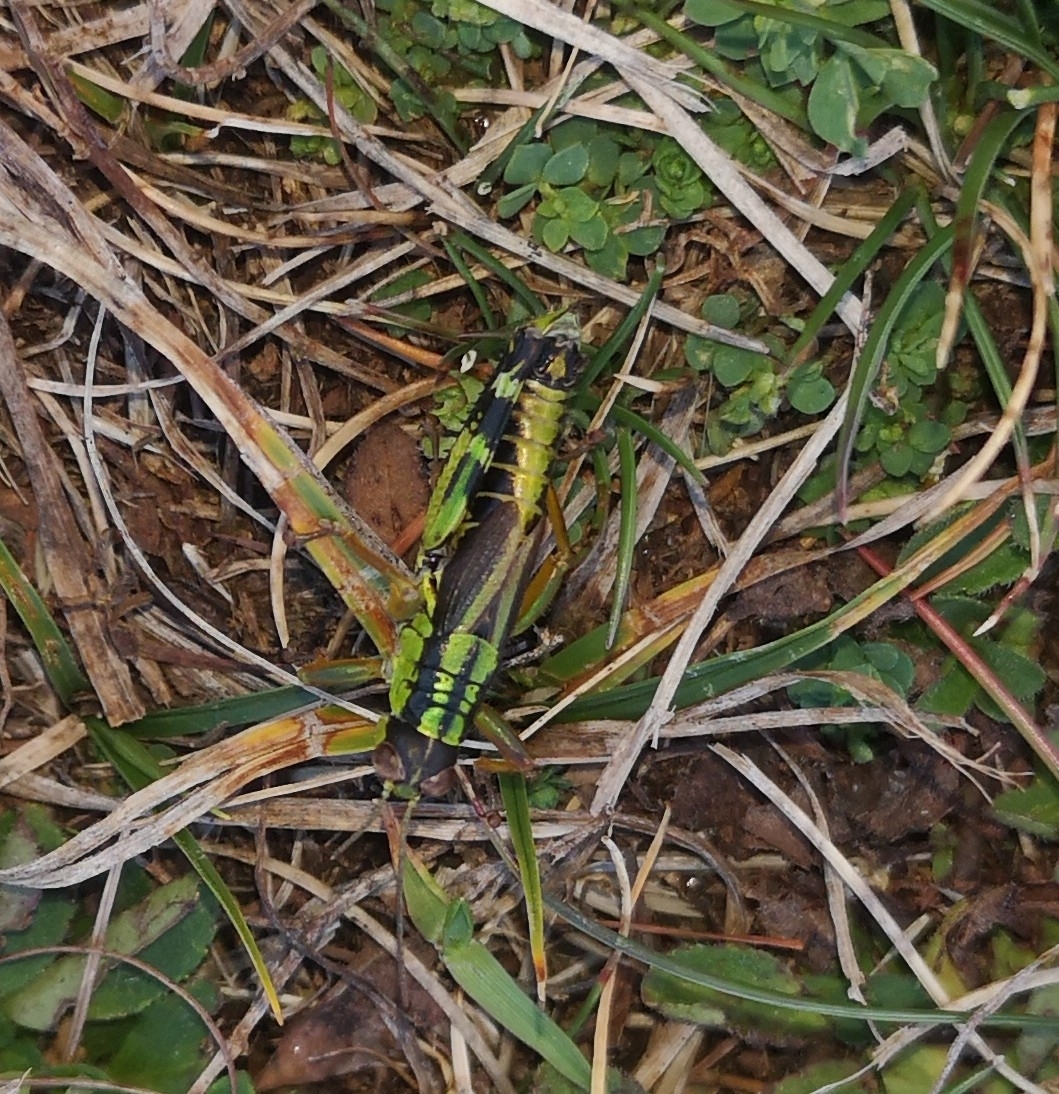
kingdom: Animalia
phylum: Arthropoda
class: Insecta
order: Orthoptera
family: Acrididae
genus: Nadigella
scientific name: Nadigella formosanta
